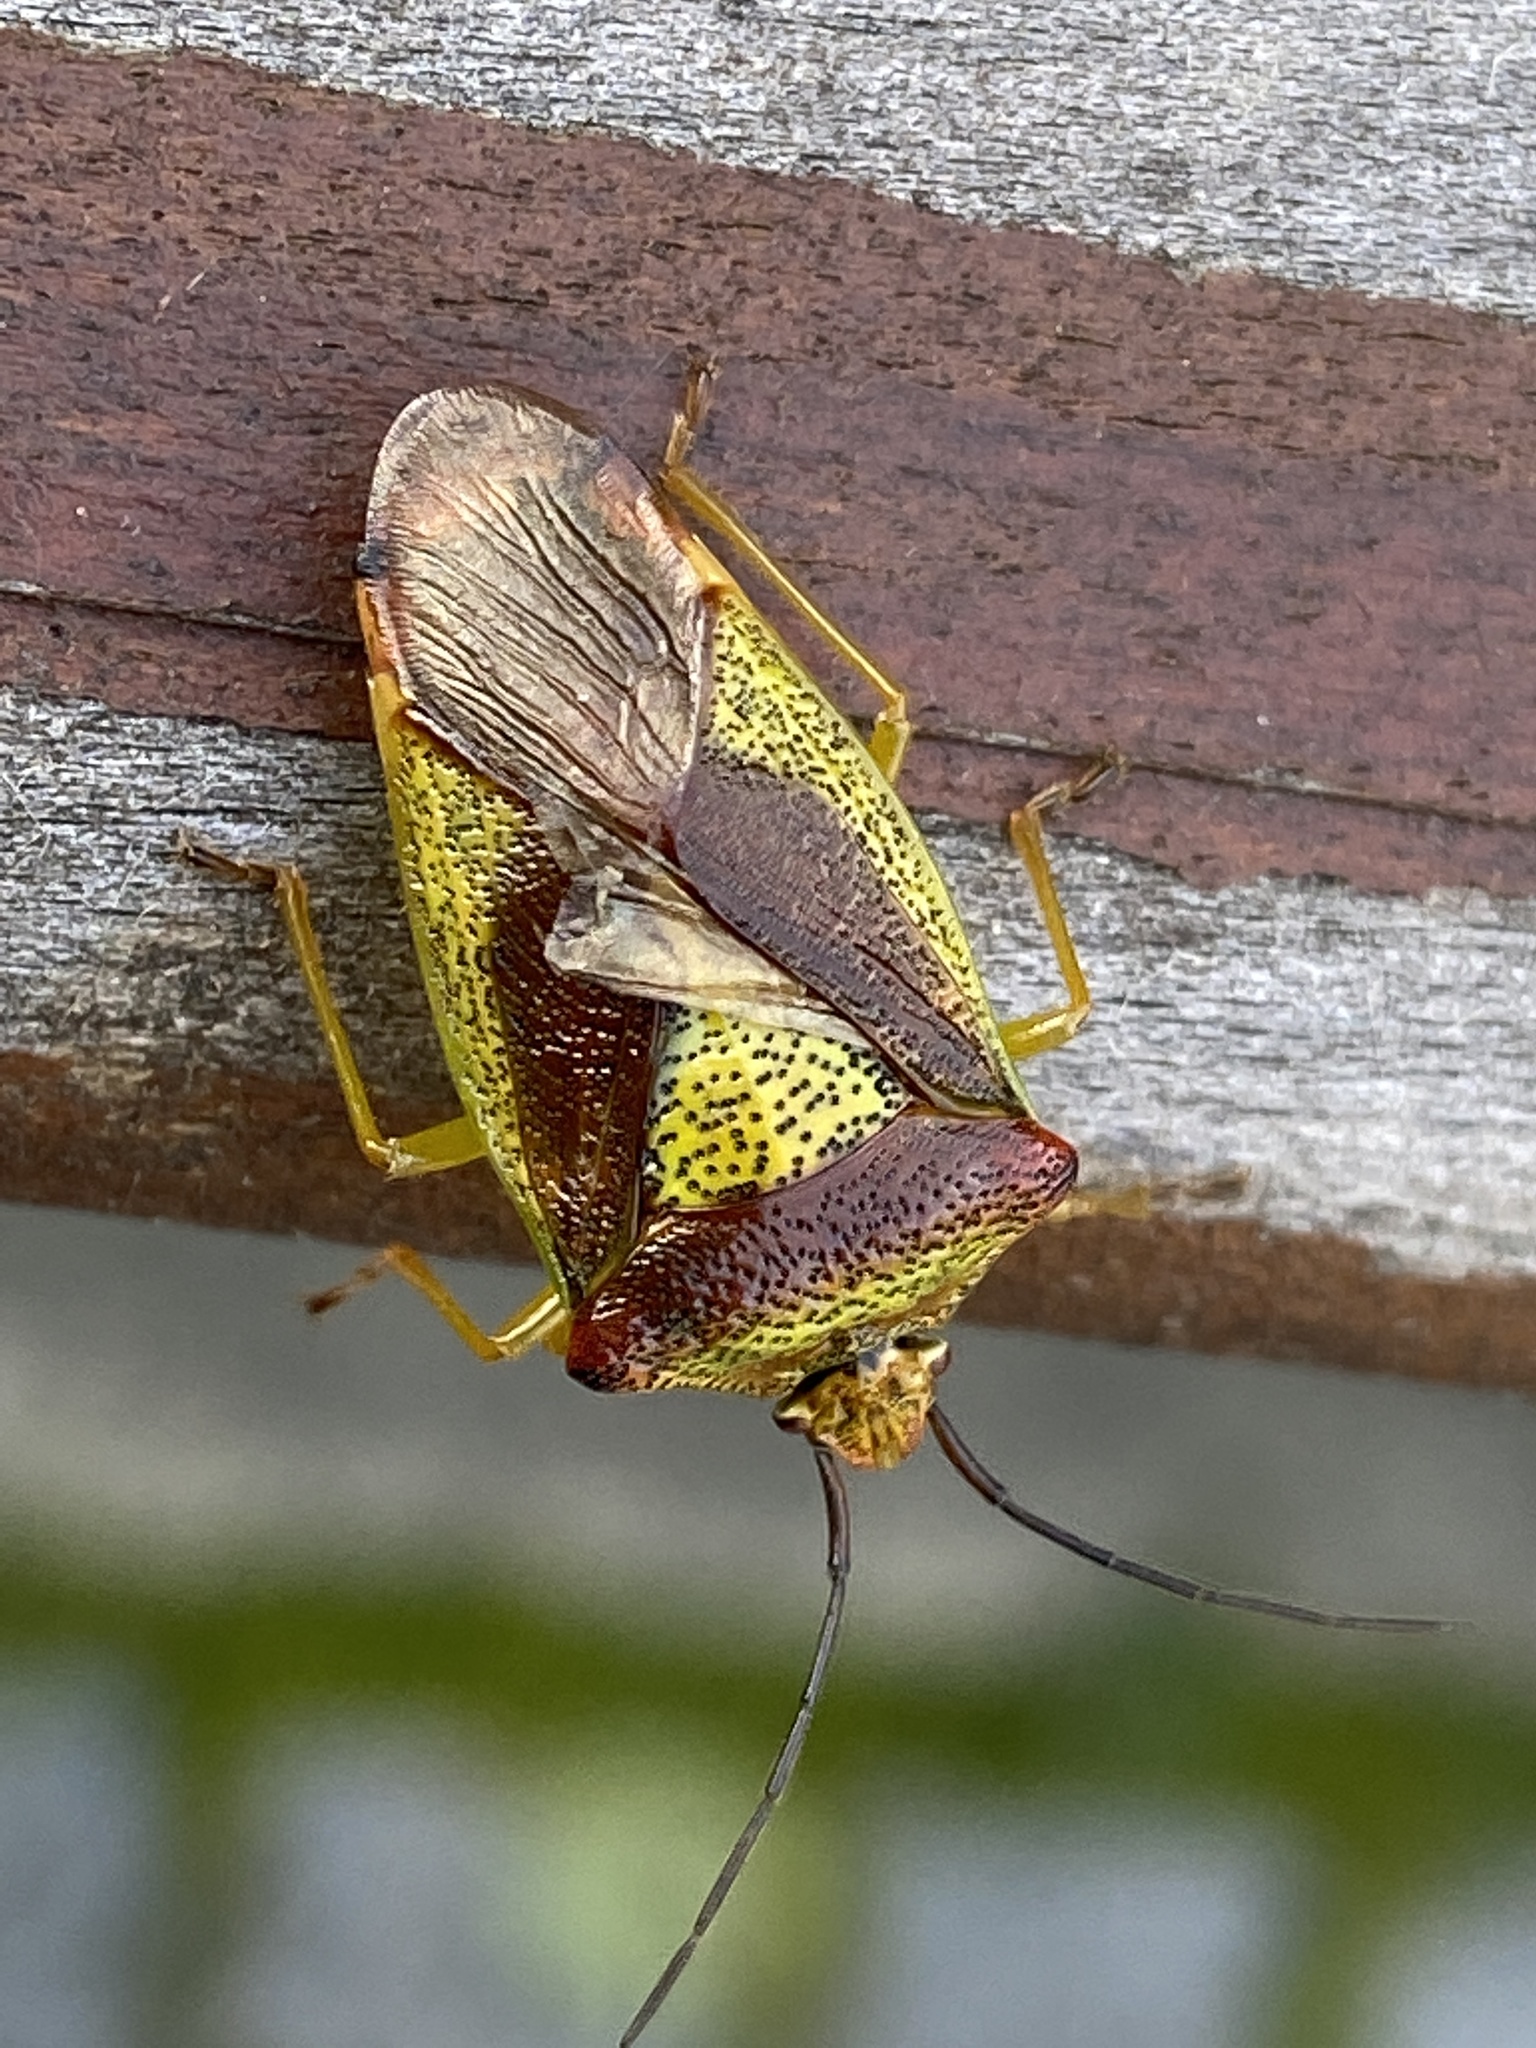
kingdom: Animalia
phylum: Arthropoda
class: Insecta
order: Hemiptera
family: Acanthosomatidae
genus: Acanthosoma
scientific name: Acanthosoma haemorrhoidale
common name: Hawthorn shieldbug
